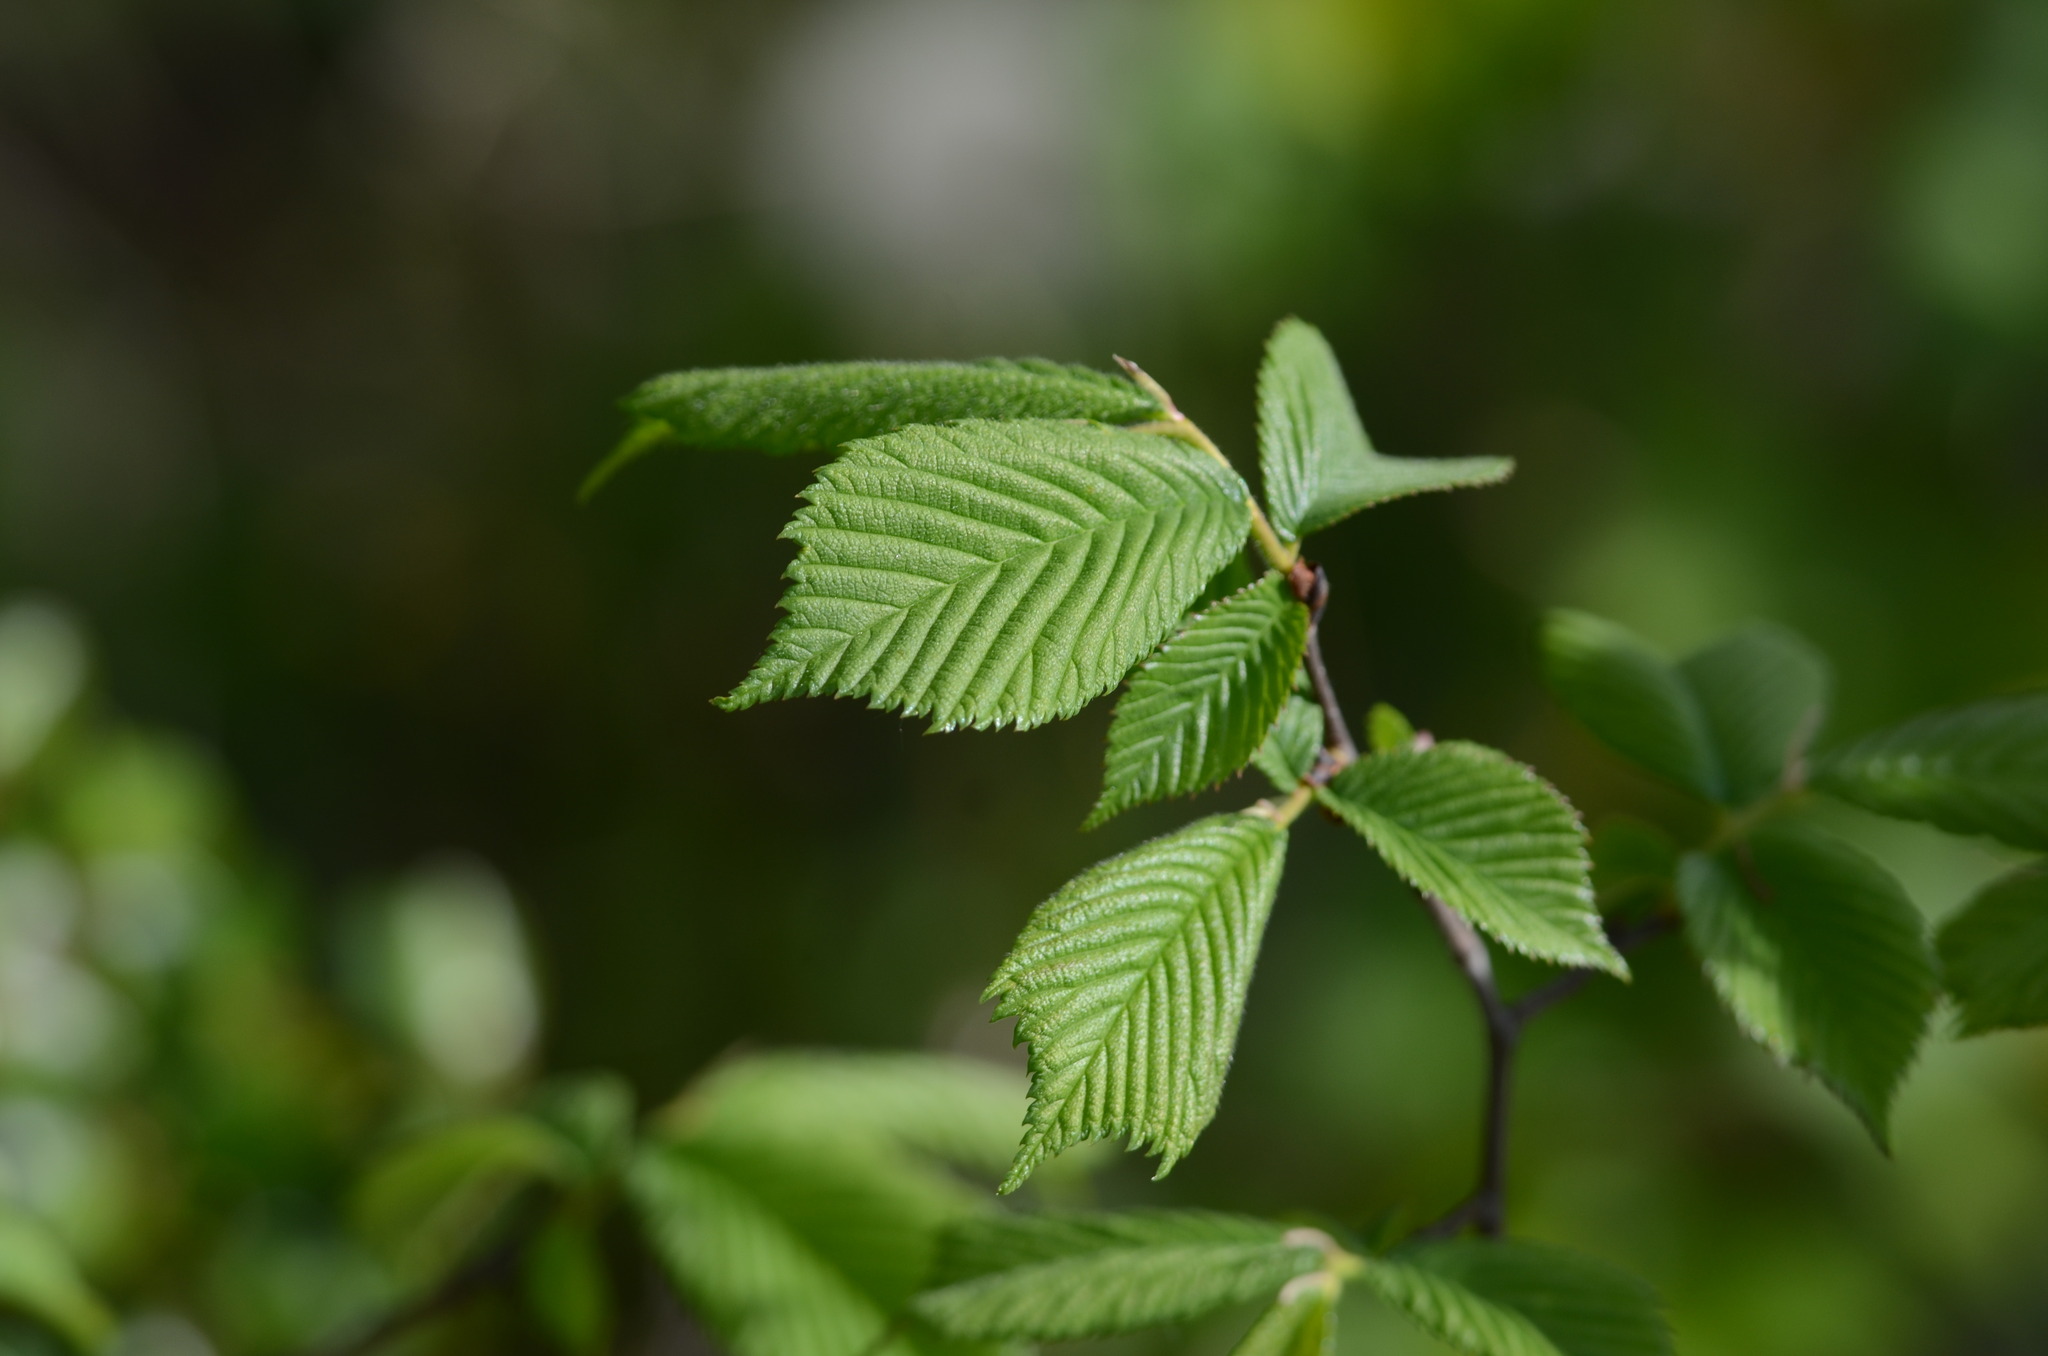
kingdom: Plantae
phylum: Tracheophyta
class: Magnoliopsida
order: Rosales
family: Ulmaceae
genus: Ulmus
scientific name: Ulmus glabra
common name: Wych elm
